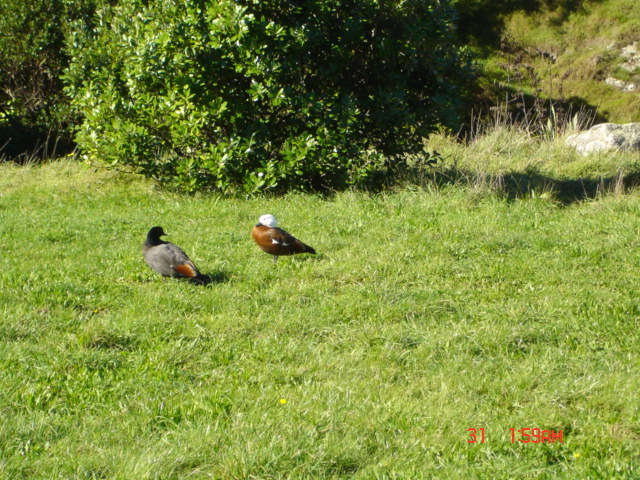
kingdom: Animalia
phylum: Chordata
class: Aves
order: Anseriformes
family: Anatidae
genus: Tadorna
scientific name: Tadorna variegata
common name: Paradise shelduck
